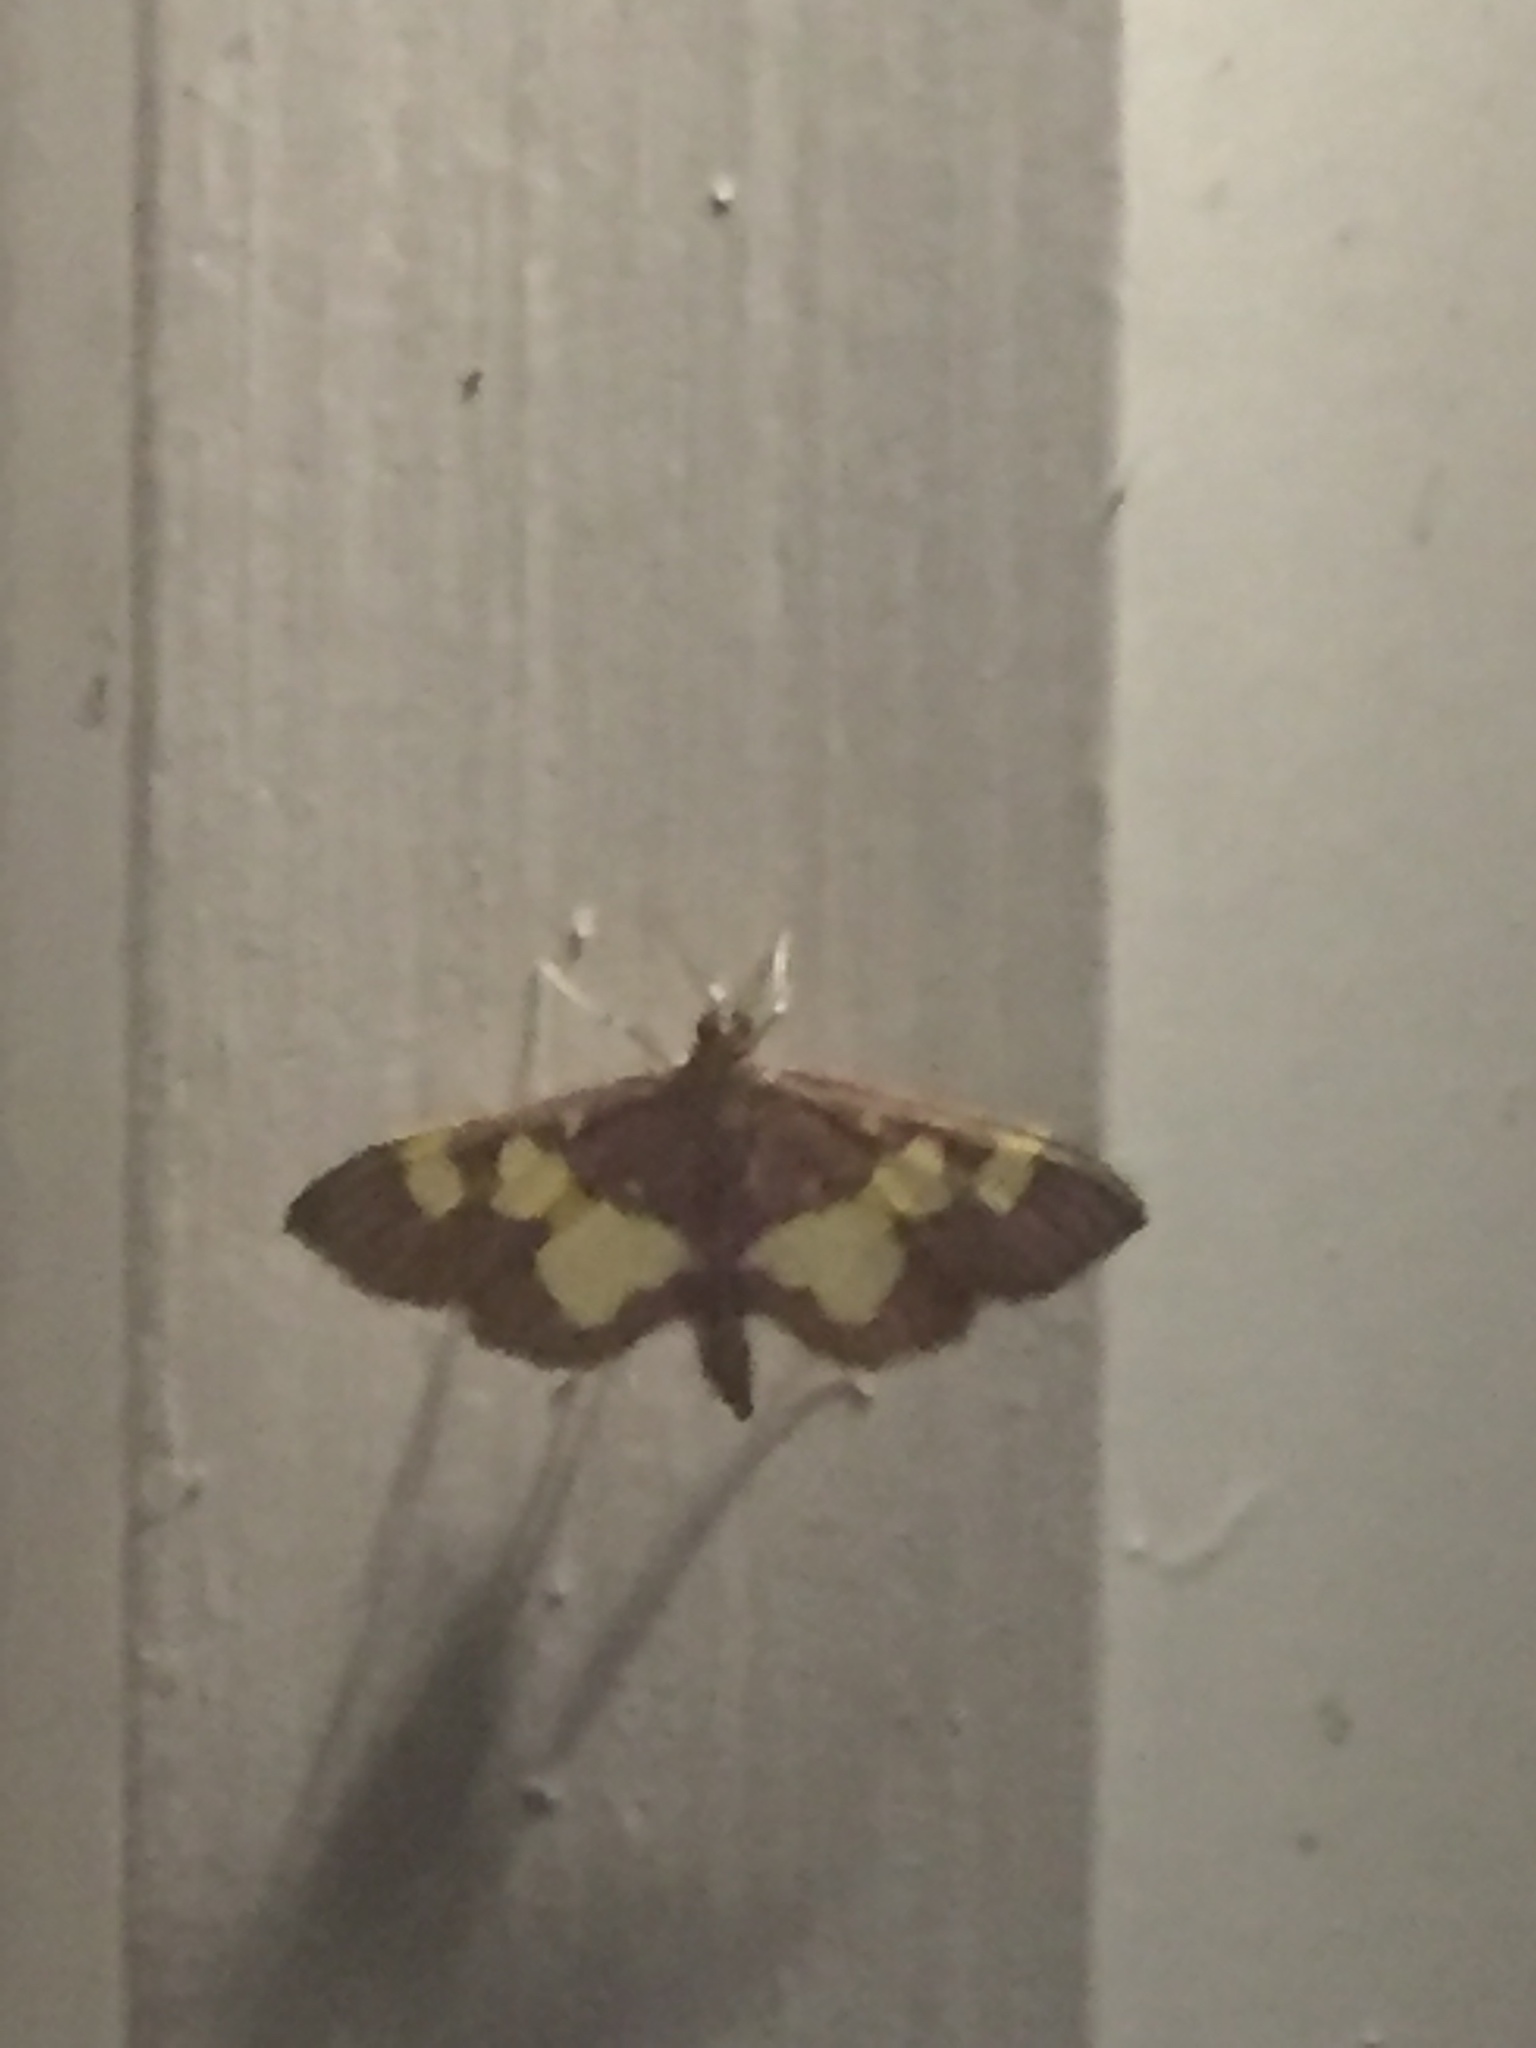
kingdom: Animalia
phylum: Arthropoda
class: Insecta
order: Lepidoptera
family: Crambidae
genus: Colomychus
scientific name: Colomychus talis
